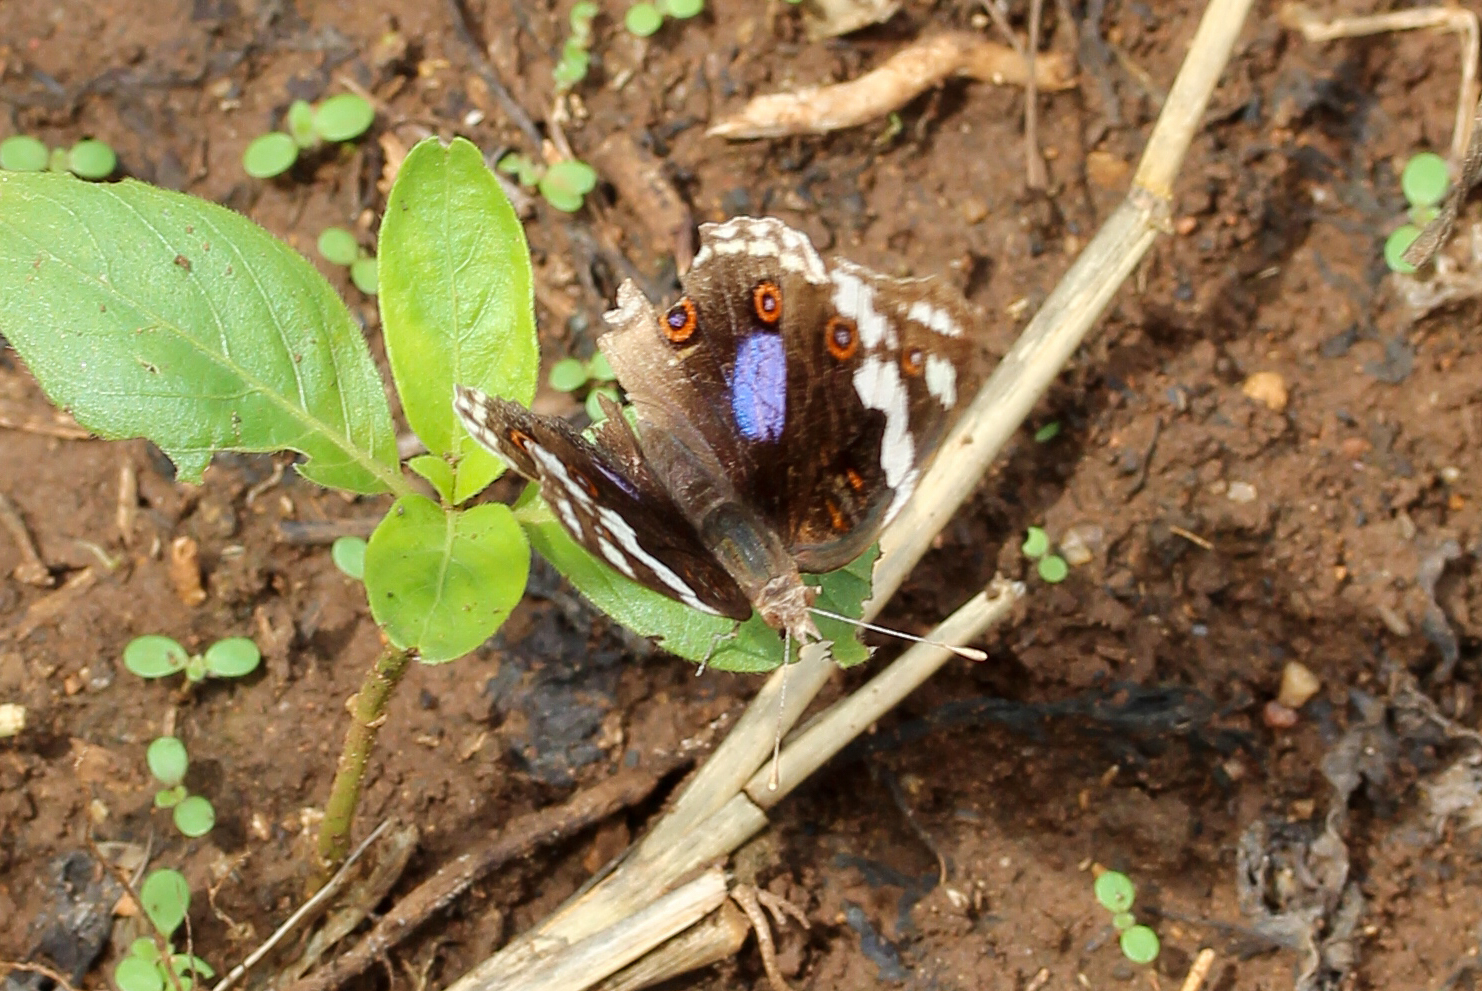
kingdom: Animalia
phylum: Arthropoda
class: Insecta
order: Lepidoptera
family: Nymphalidae
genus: Junonia
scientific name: Junonia oenone
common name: Dark blue pansy
